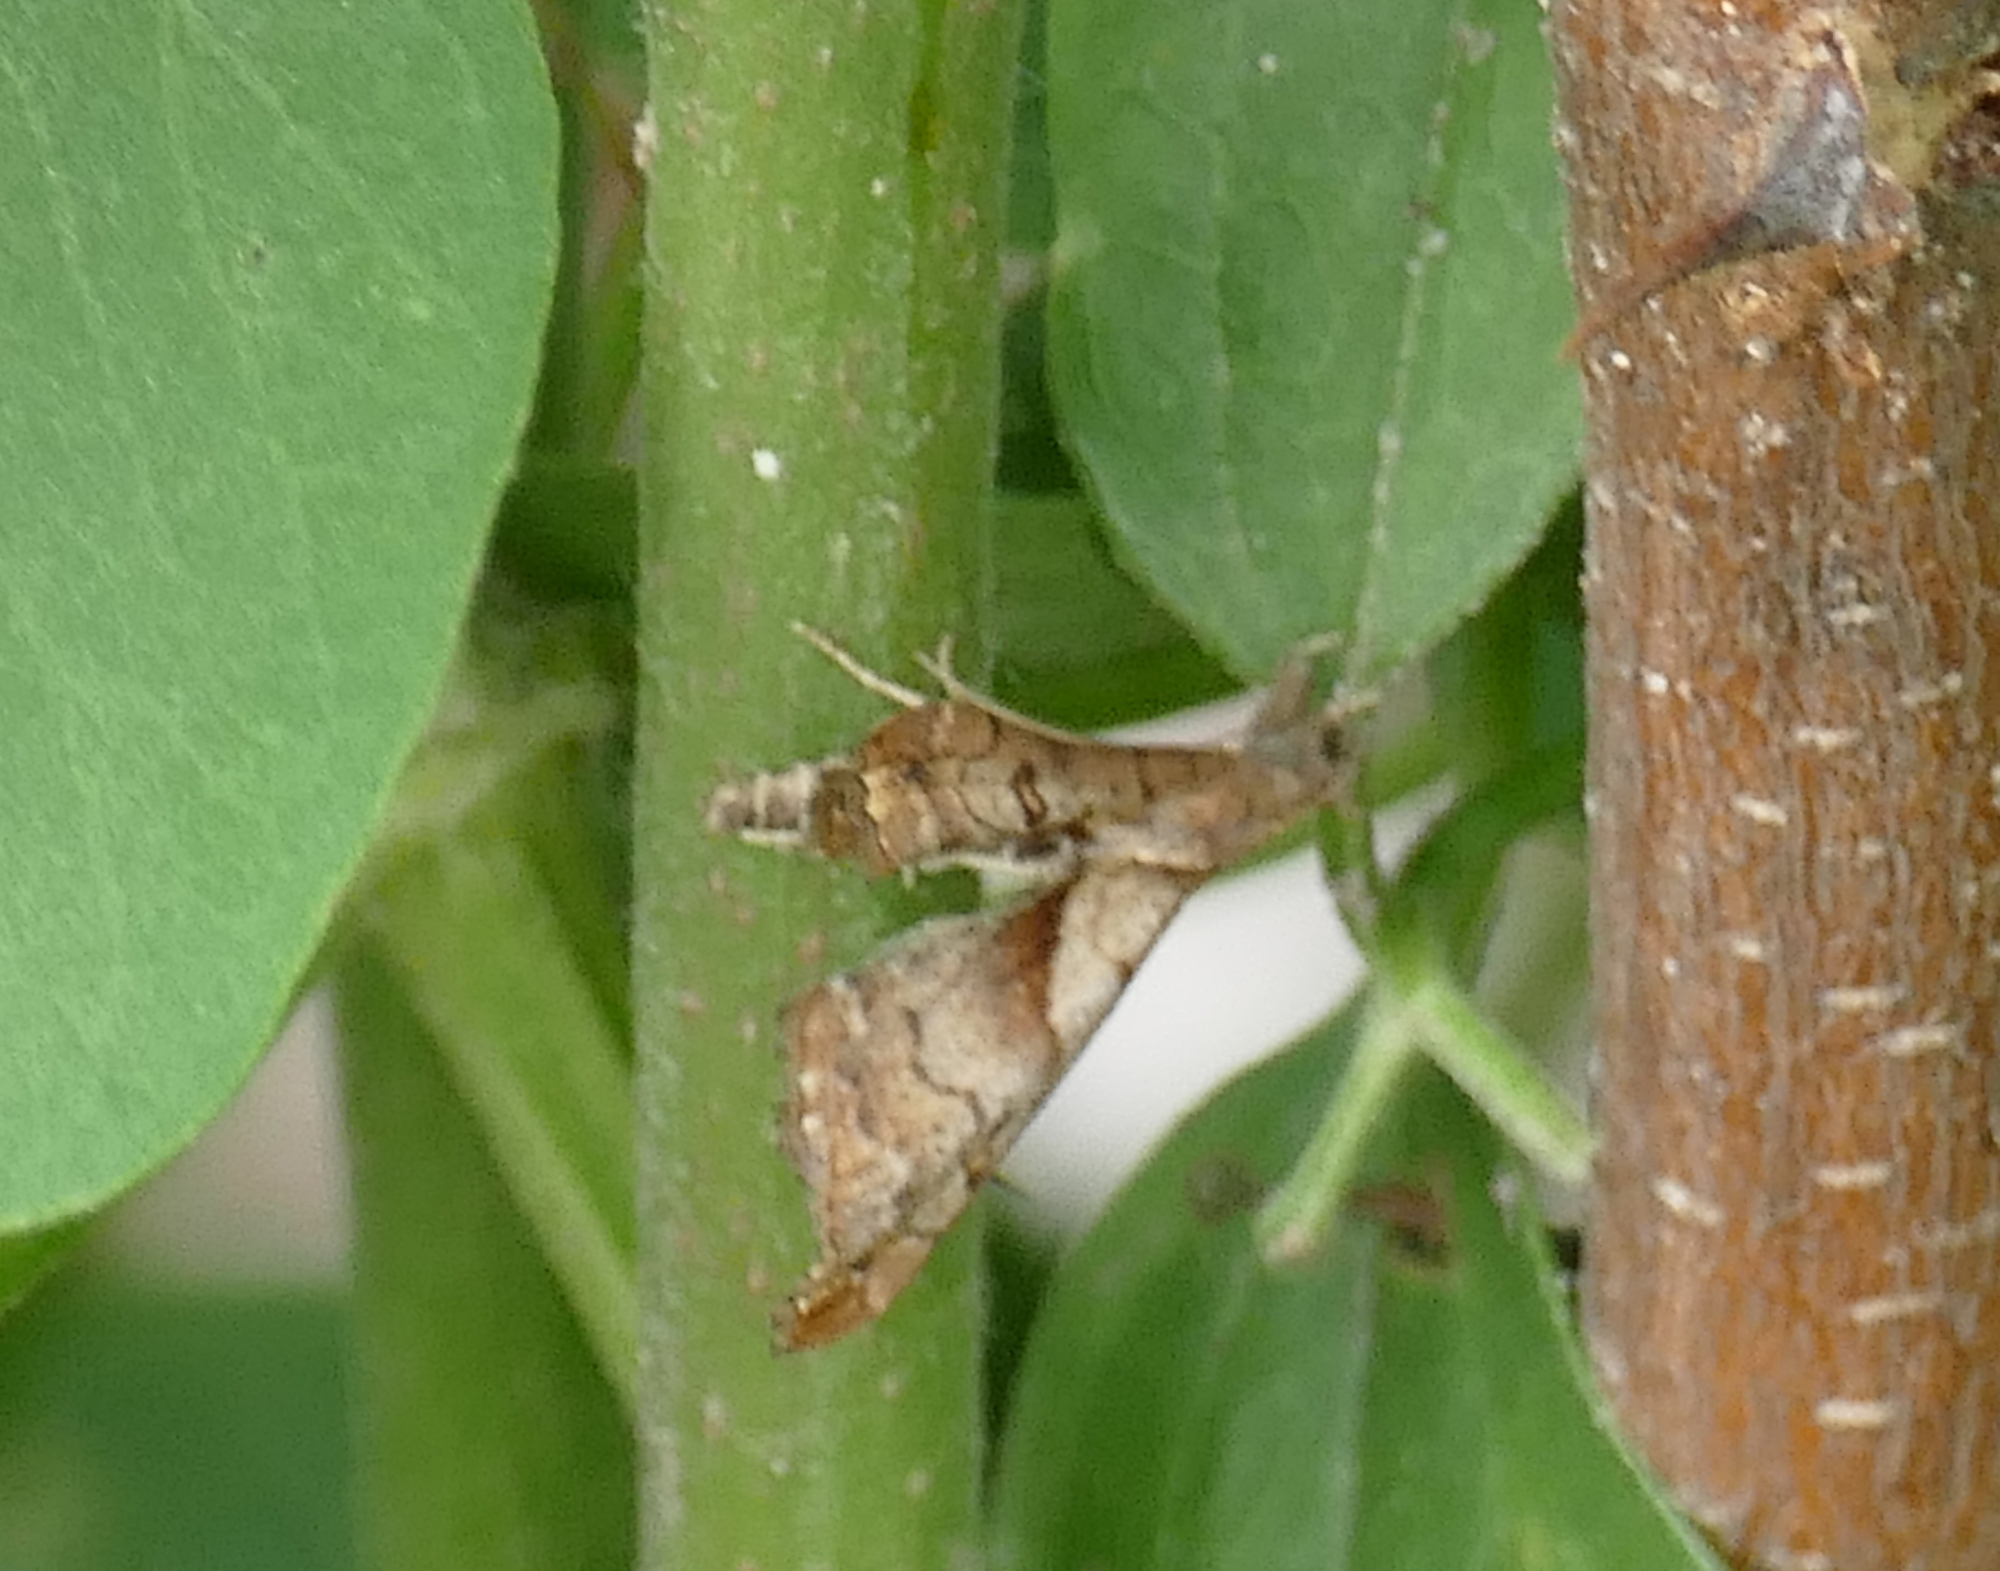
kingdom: Animalia
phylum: Arthropoda
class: Insecta
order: Lepidoptera
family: Erebidae
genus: Palthis
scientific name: Palthis angulalis
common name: Dark-spotted palthis moth
